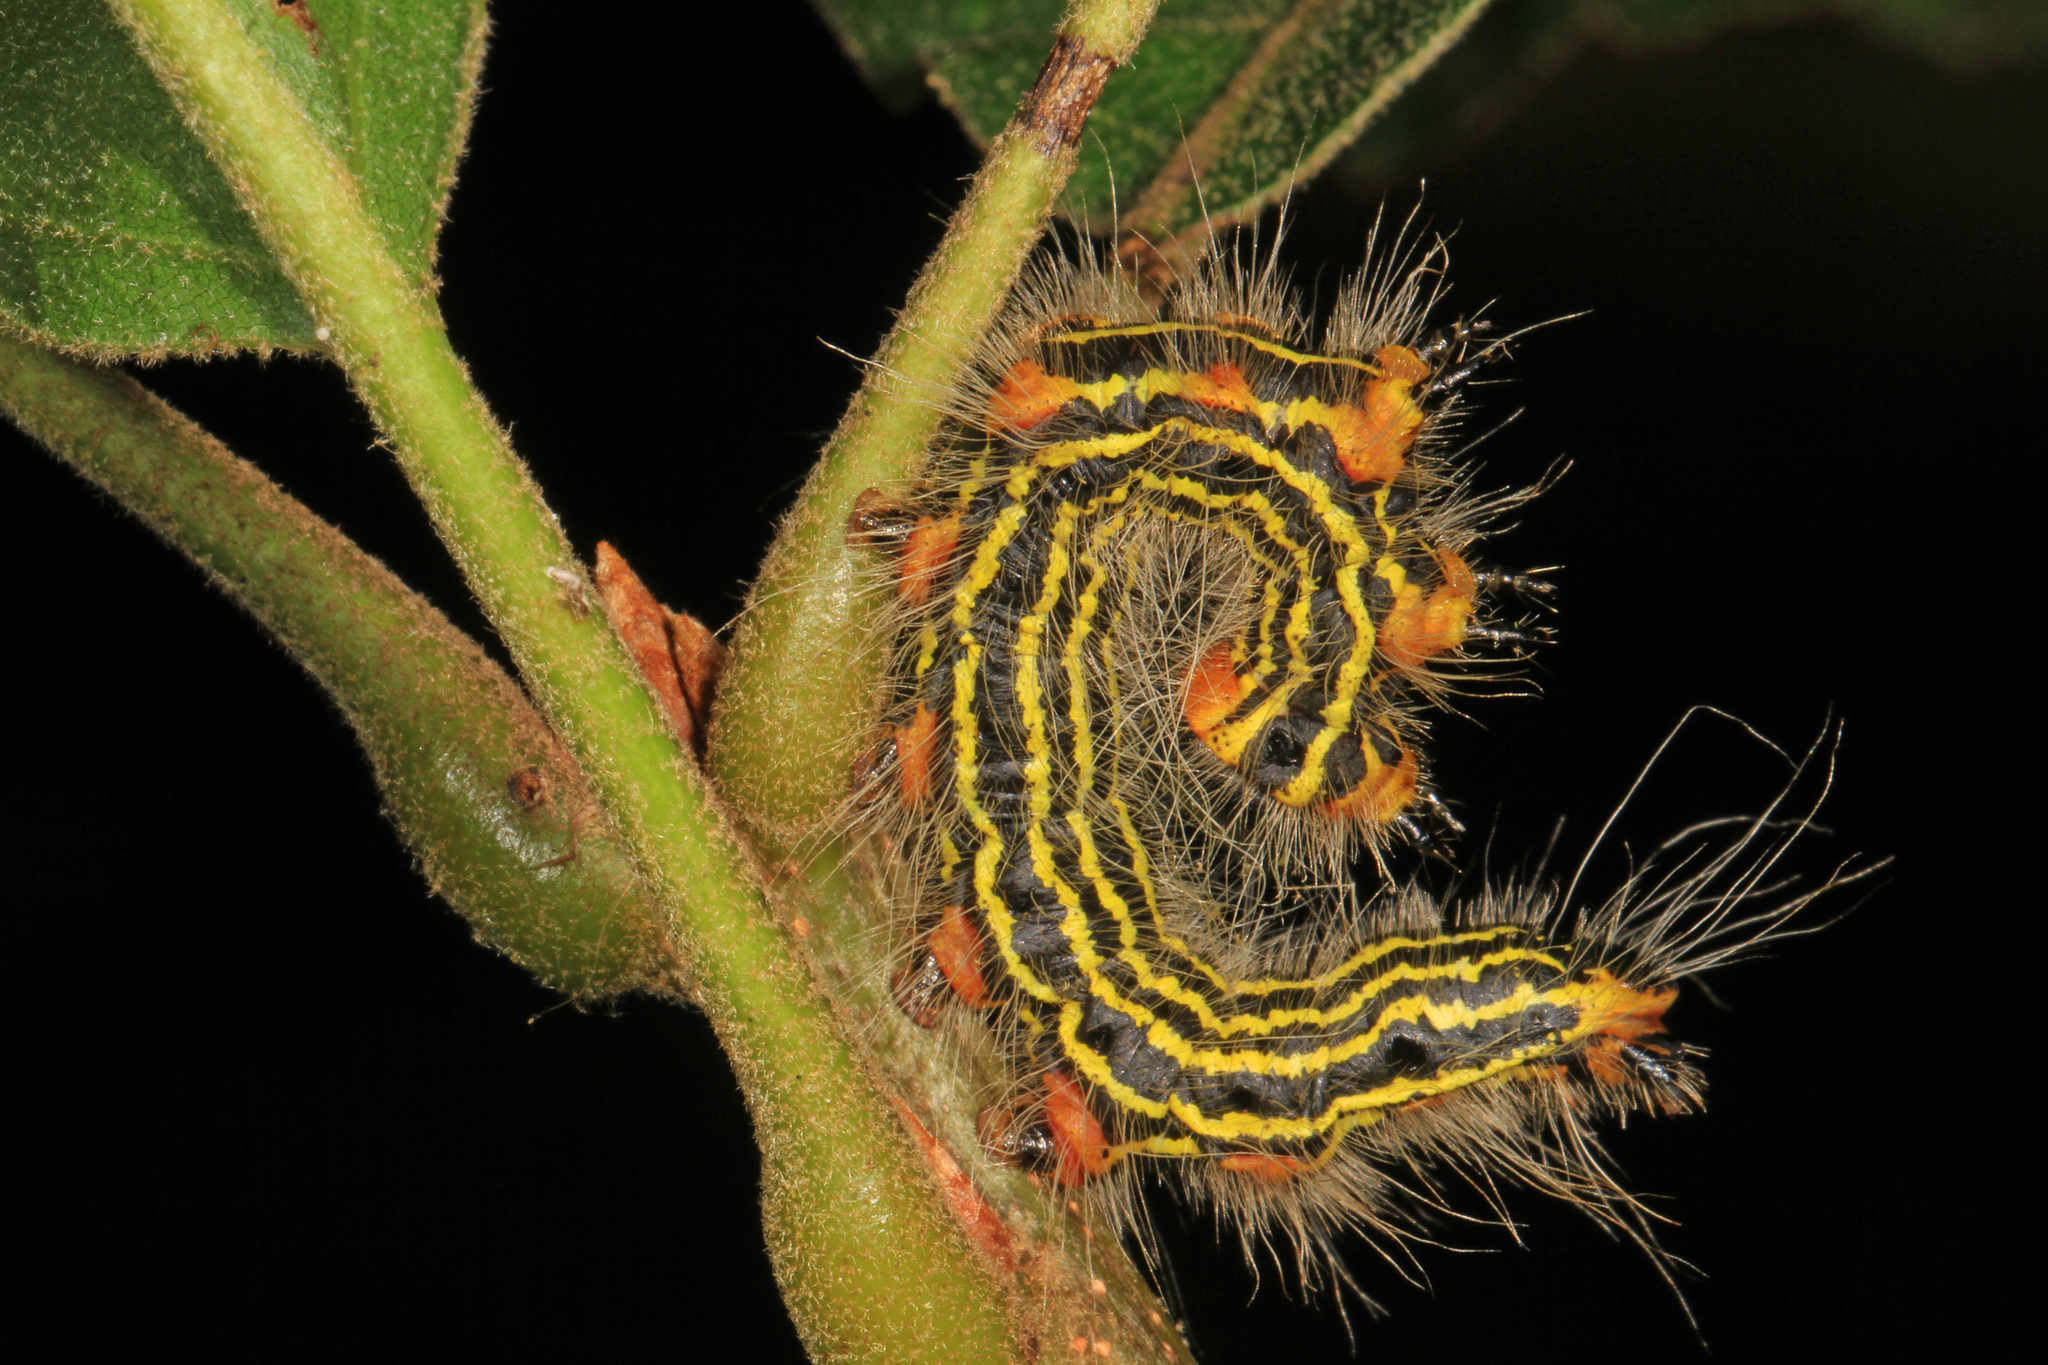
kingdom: Animalia
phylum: Arthropoda
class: Insecta
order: Lepidoptera
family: Notodontidae
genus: Datana
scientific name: Datana ministra
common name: Yellow-necked caterpillar moth
